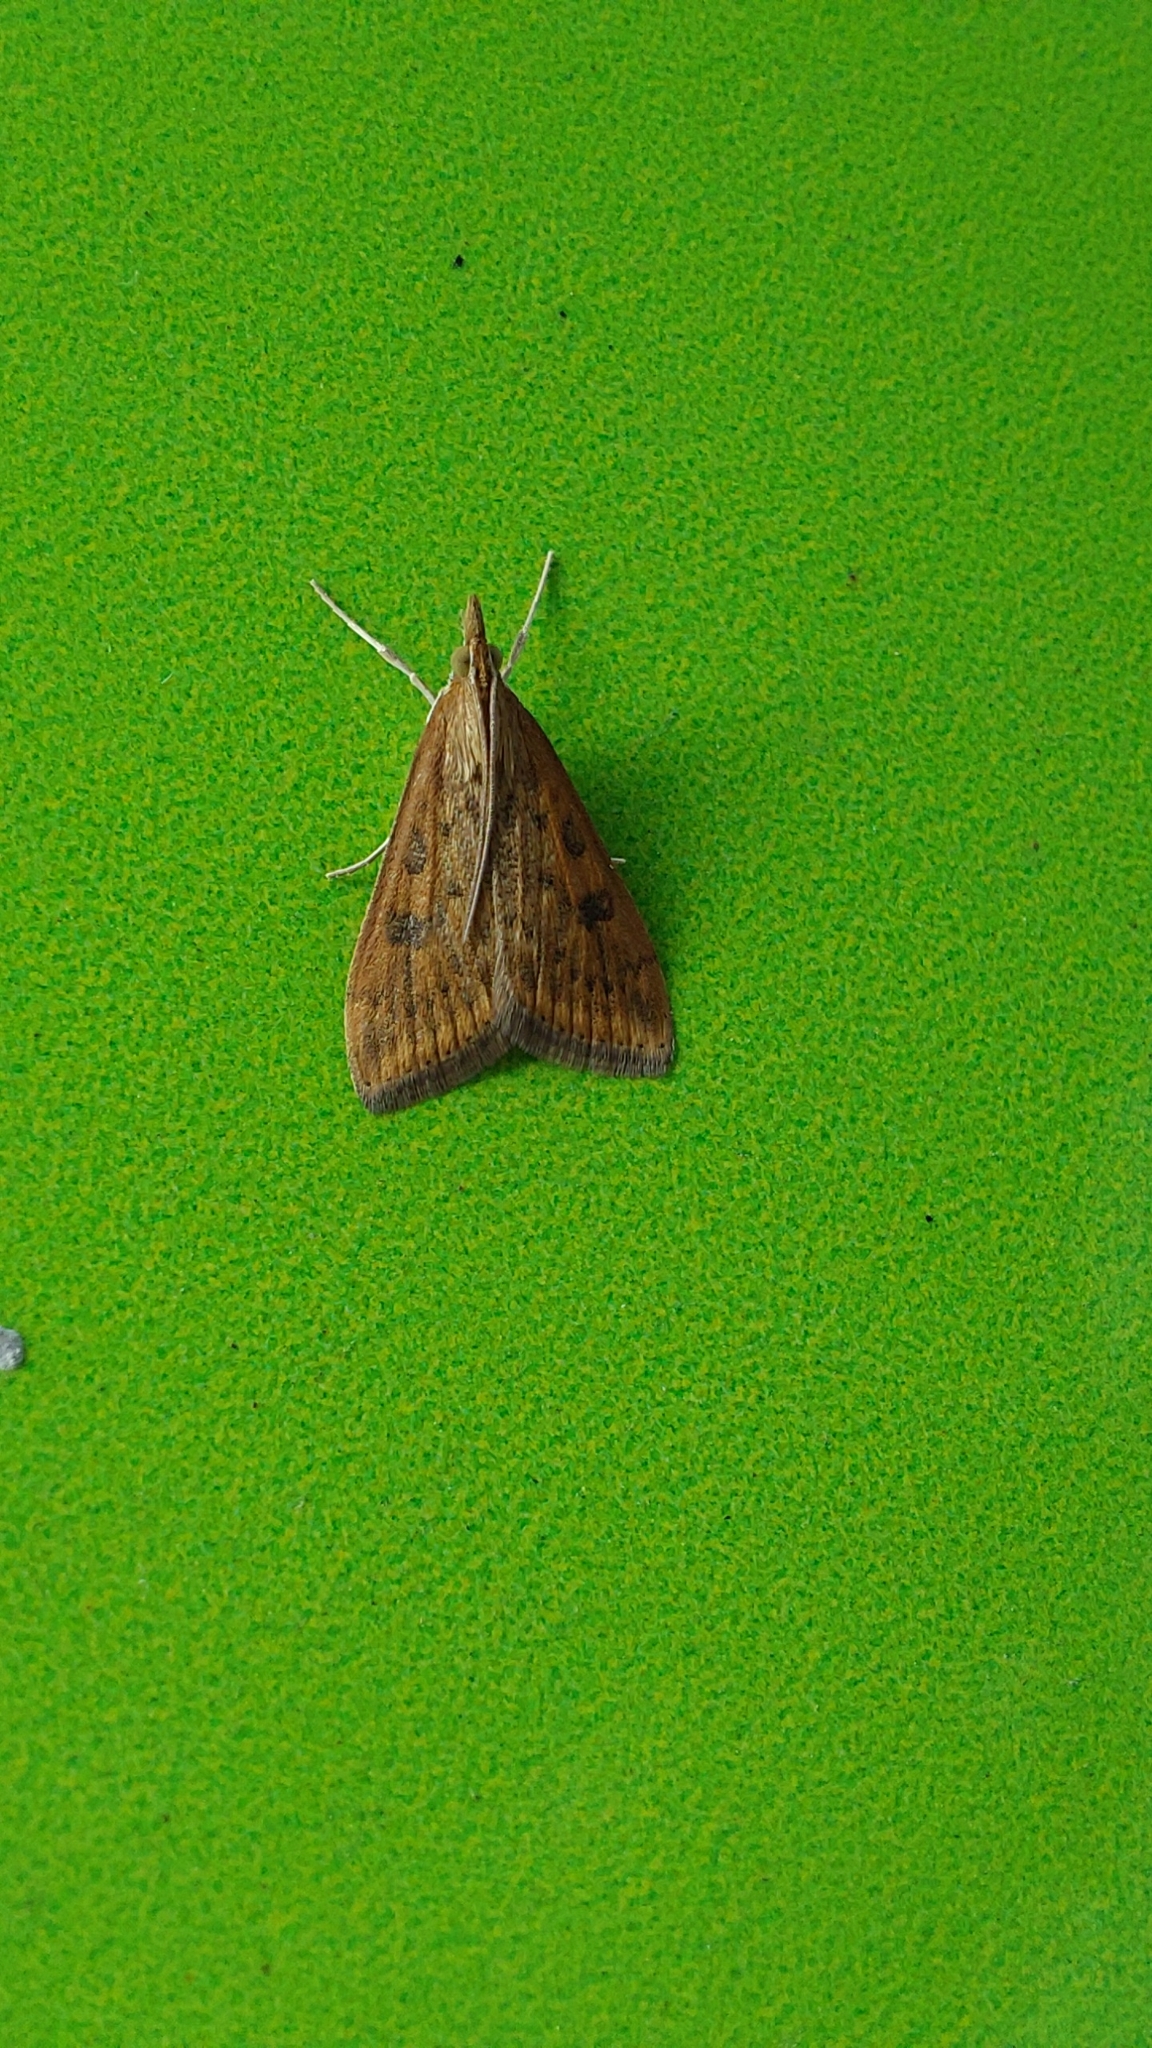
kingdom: Animalia
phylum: Arthropoda
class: Insecta
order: Lepidoptera
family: Crambidae
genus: Udea
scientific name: Udea ferrugalis
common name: Rusty dot
